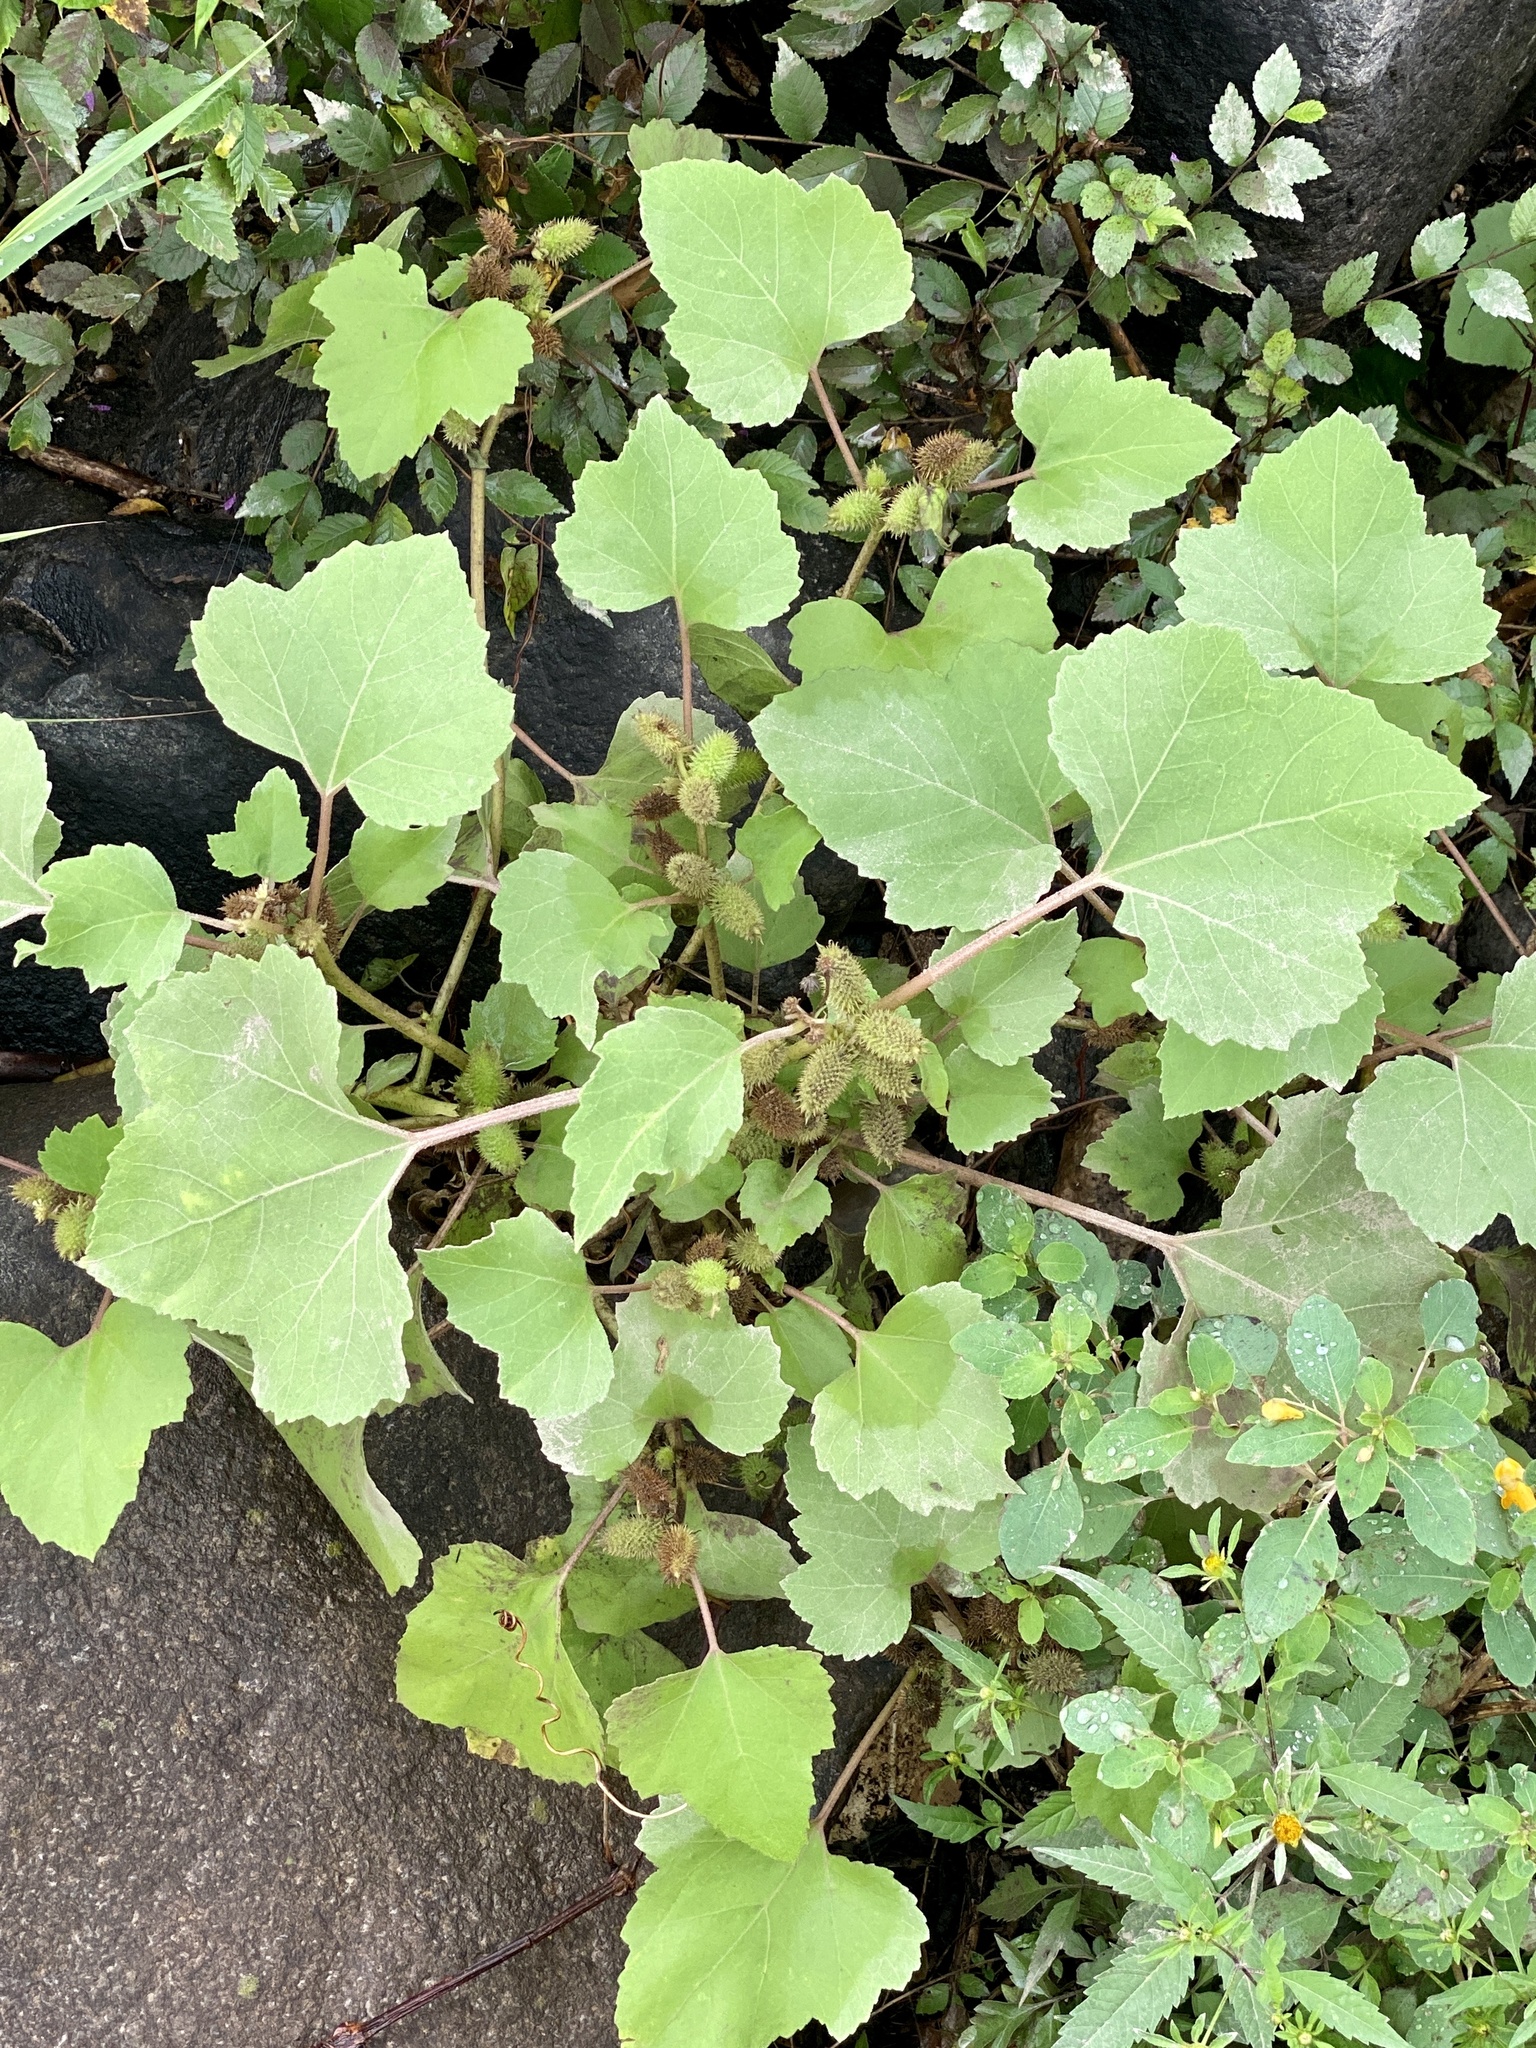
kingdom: Plantae
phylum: Tracheophyta
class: Magnoliopsida
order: Asterales
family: Asteraceae
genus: Xanthium
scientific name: Xanthium strumarium
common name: Rough cocklebur
